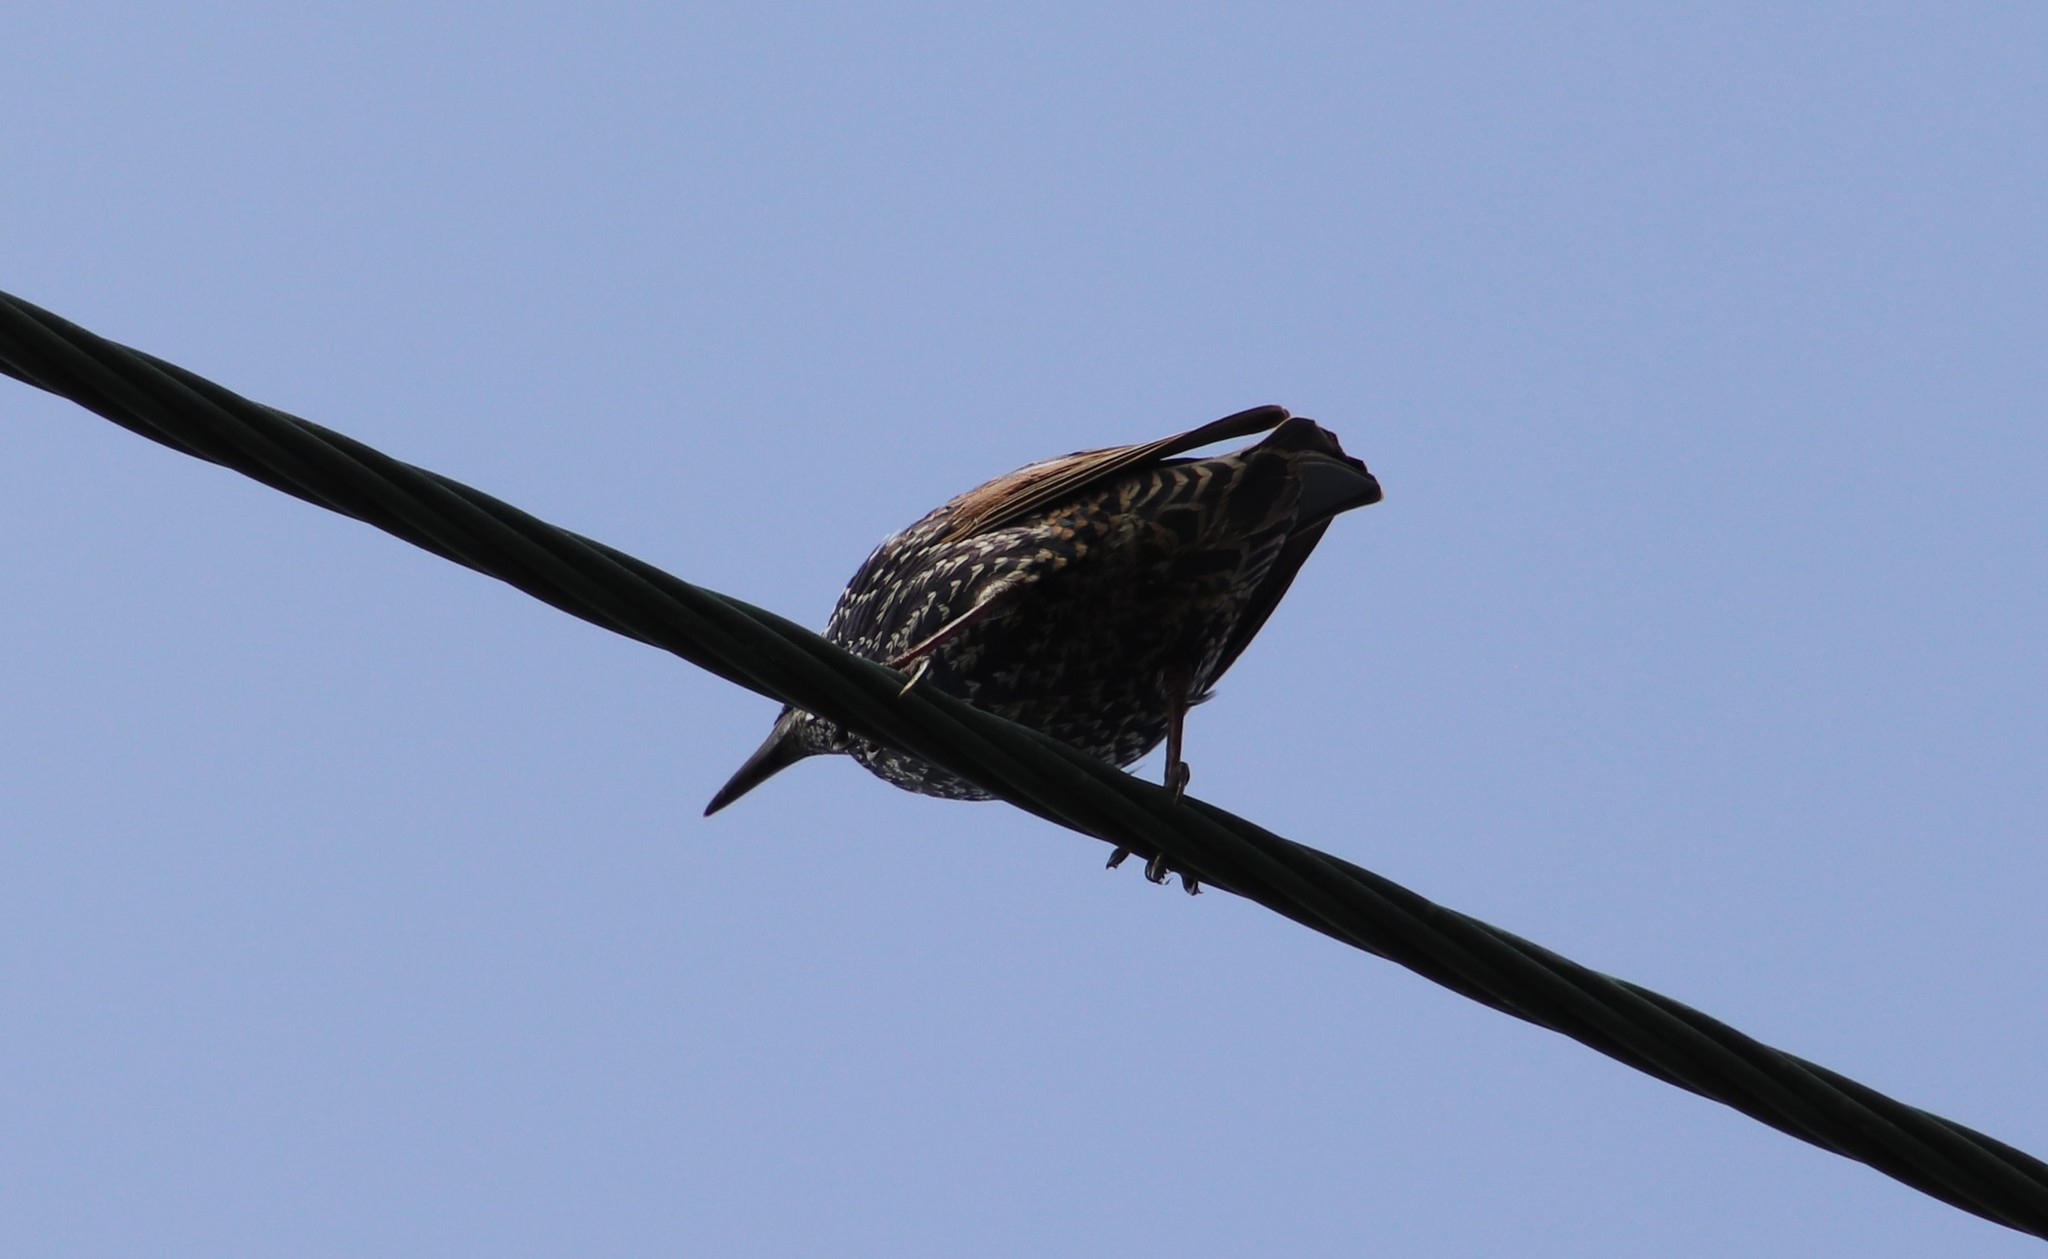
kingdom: Animalia
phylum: Chordata
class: Aves
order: Passeriformes
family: Sturnidae
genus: Sturnus
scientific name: Sturnus vulgaris
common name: Common starling
